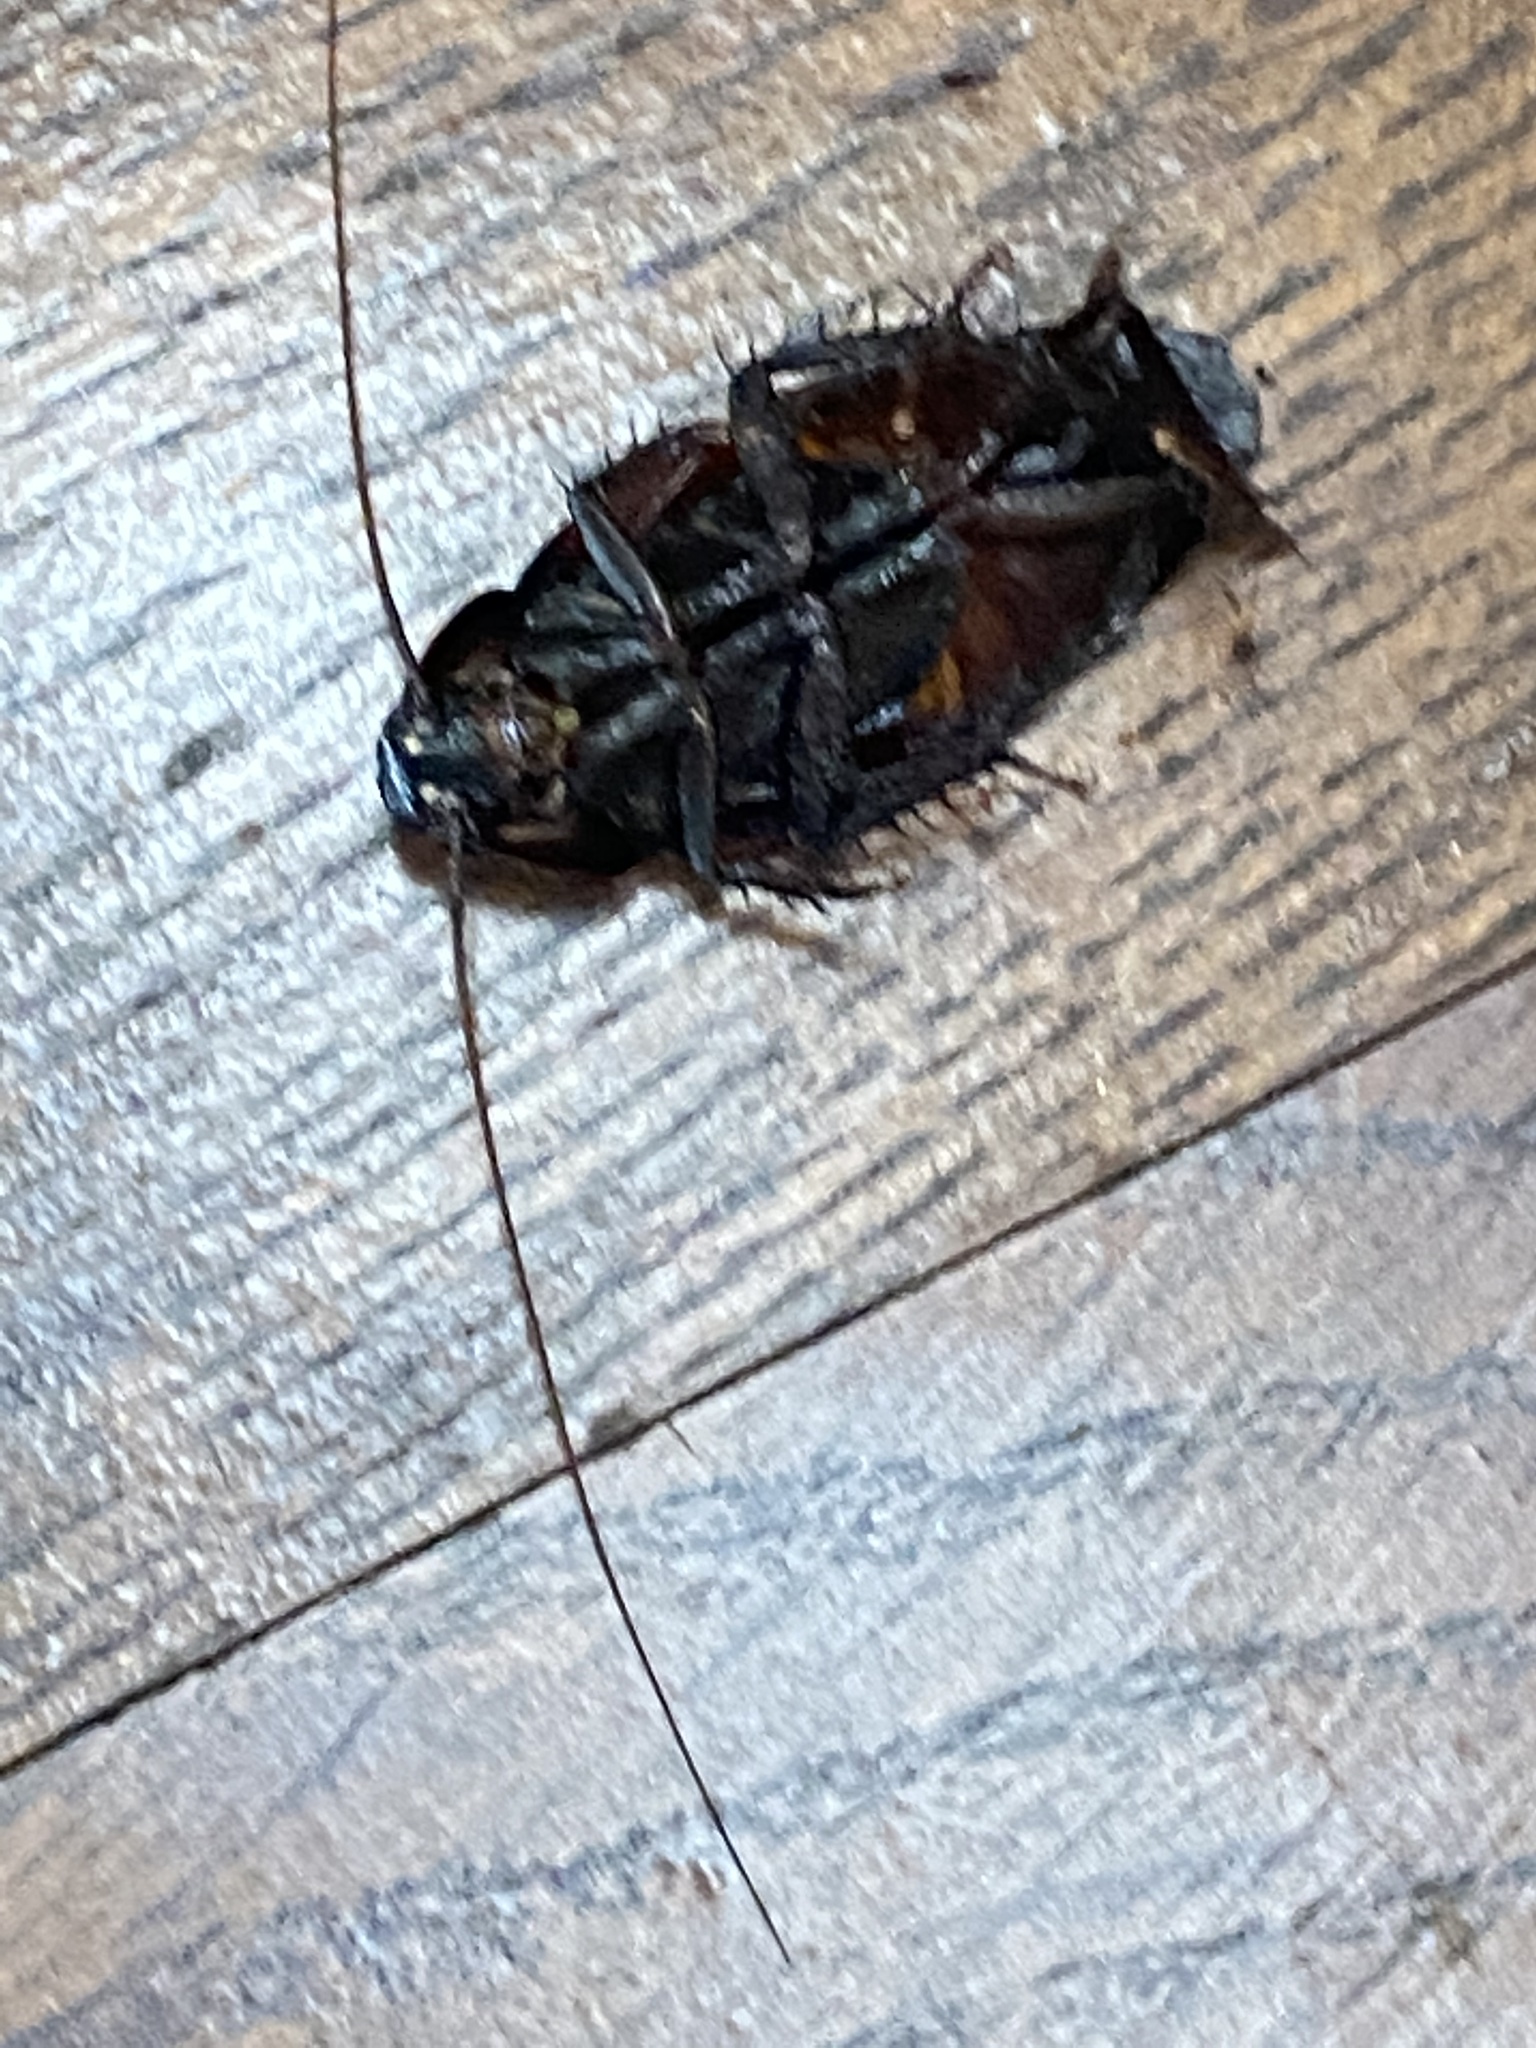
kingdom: Animalia
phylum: Arthropoda
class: Insecta
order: Blattodea
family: Blattidae
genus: Periplaneta
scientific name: Periplaneta fuliginosa
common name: Smokeybrown cockroad
